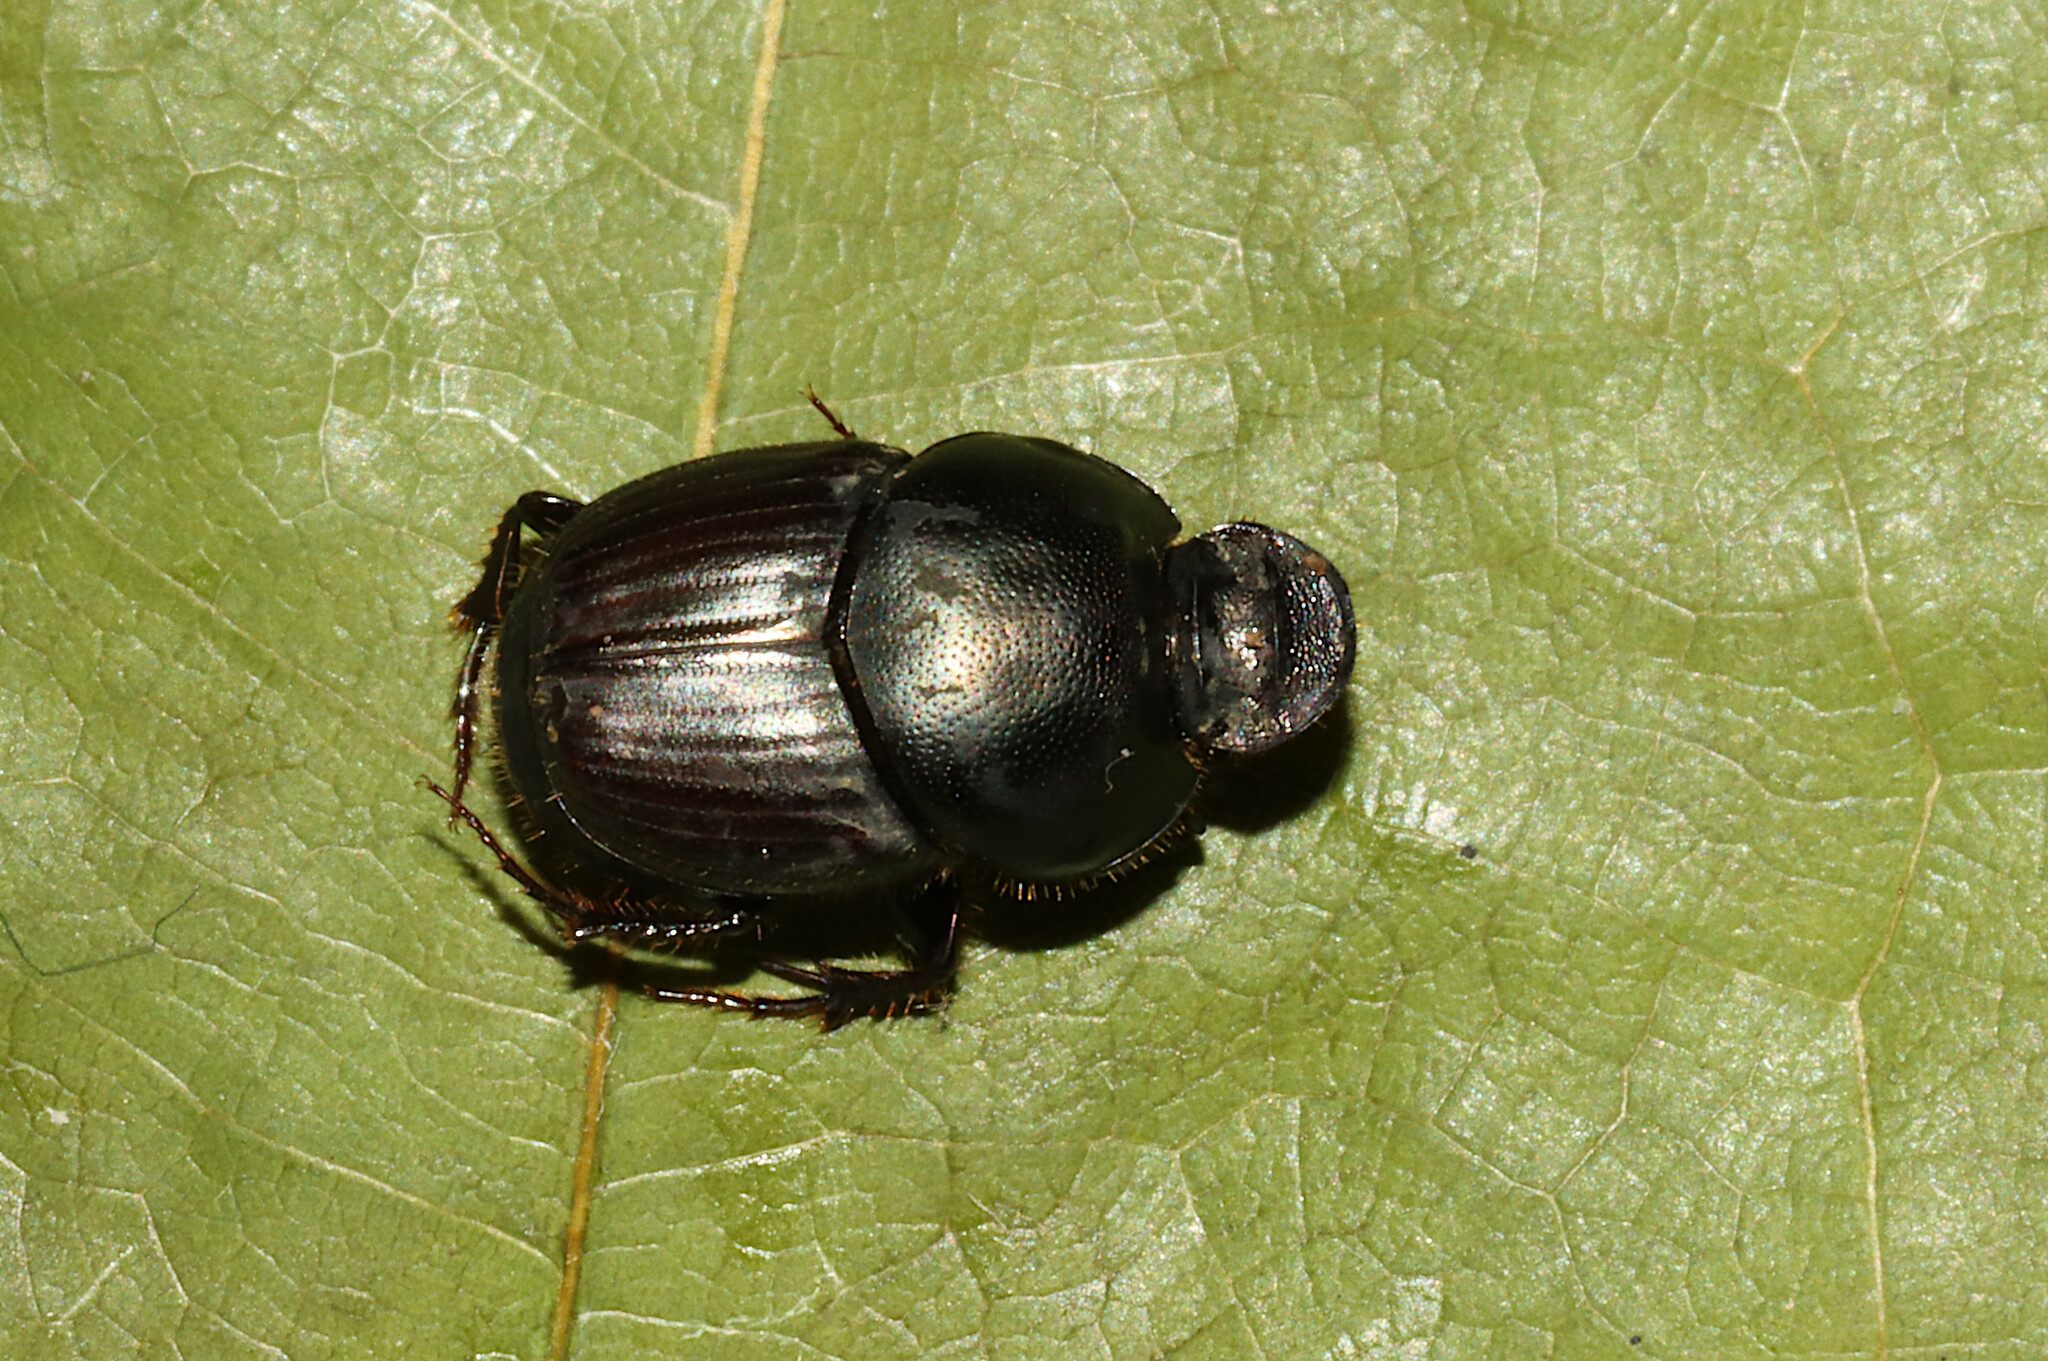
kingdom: Animalia
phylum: Arthropoda
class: Insecta
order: Coleoptera
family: Scarabaeidae
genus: Onthophagus
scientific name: Onthophagus taurus
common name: Bullhorned dung beetle
